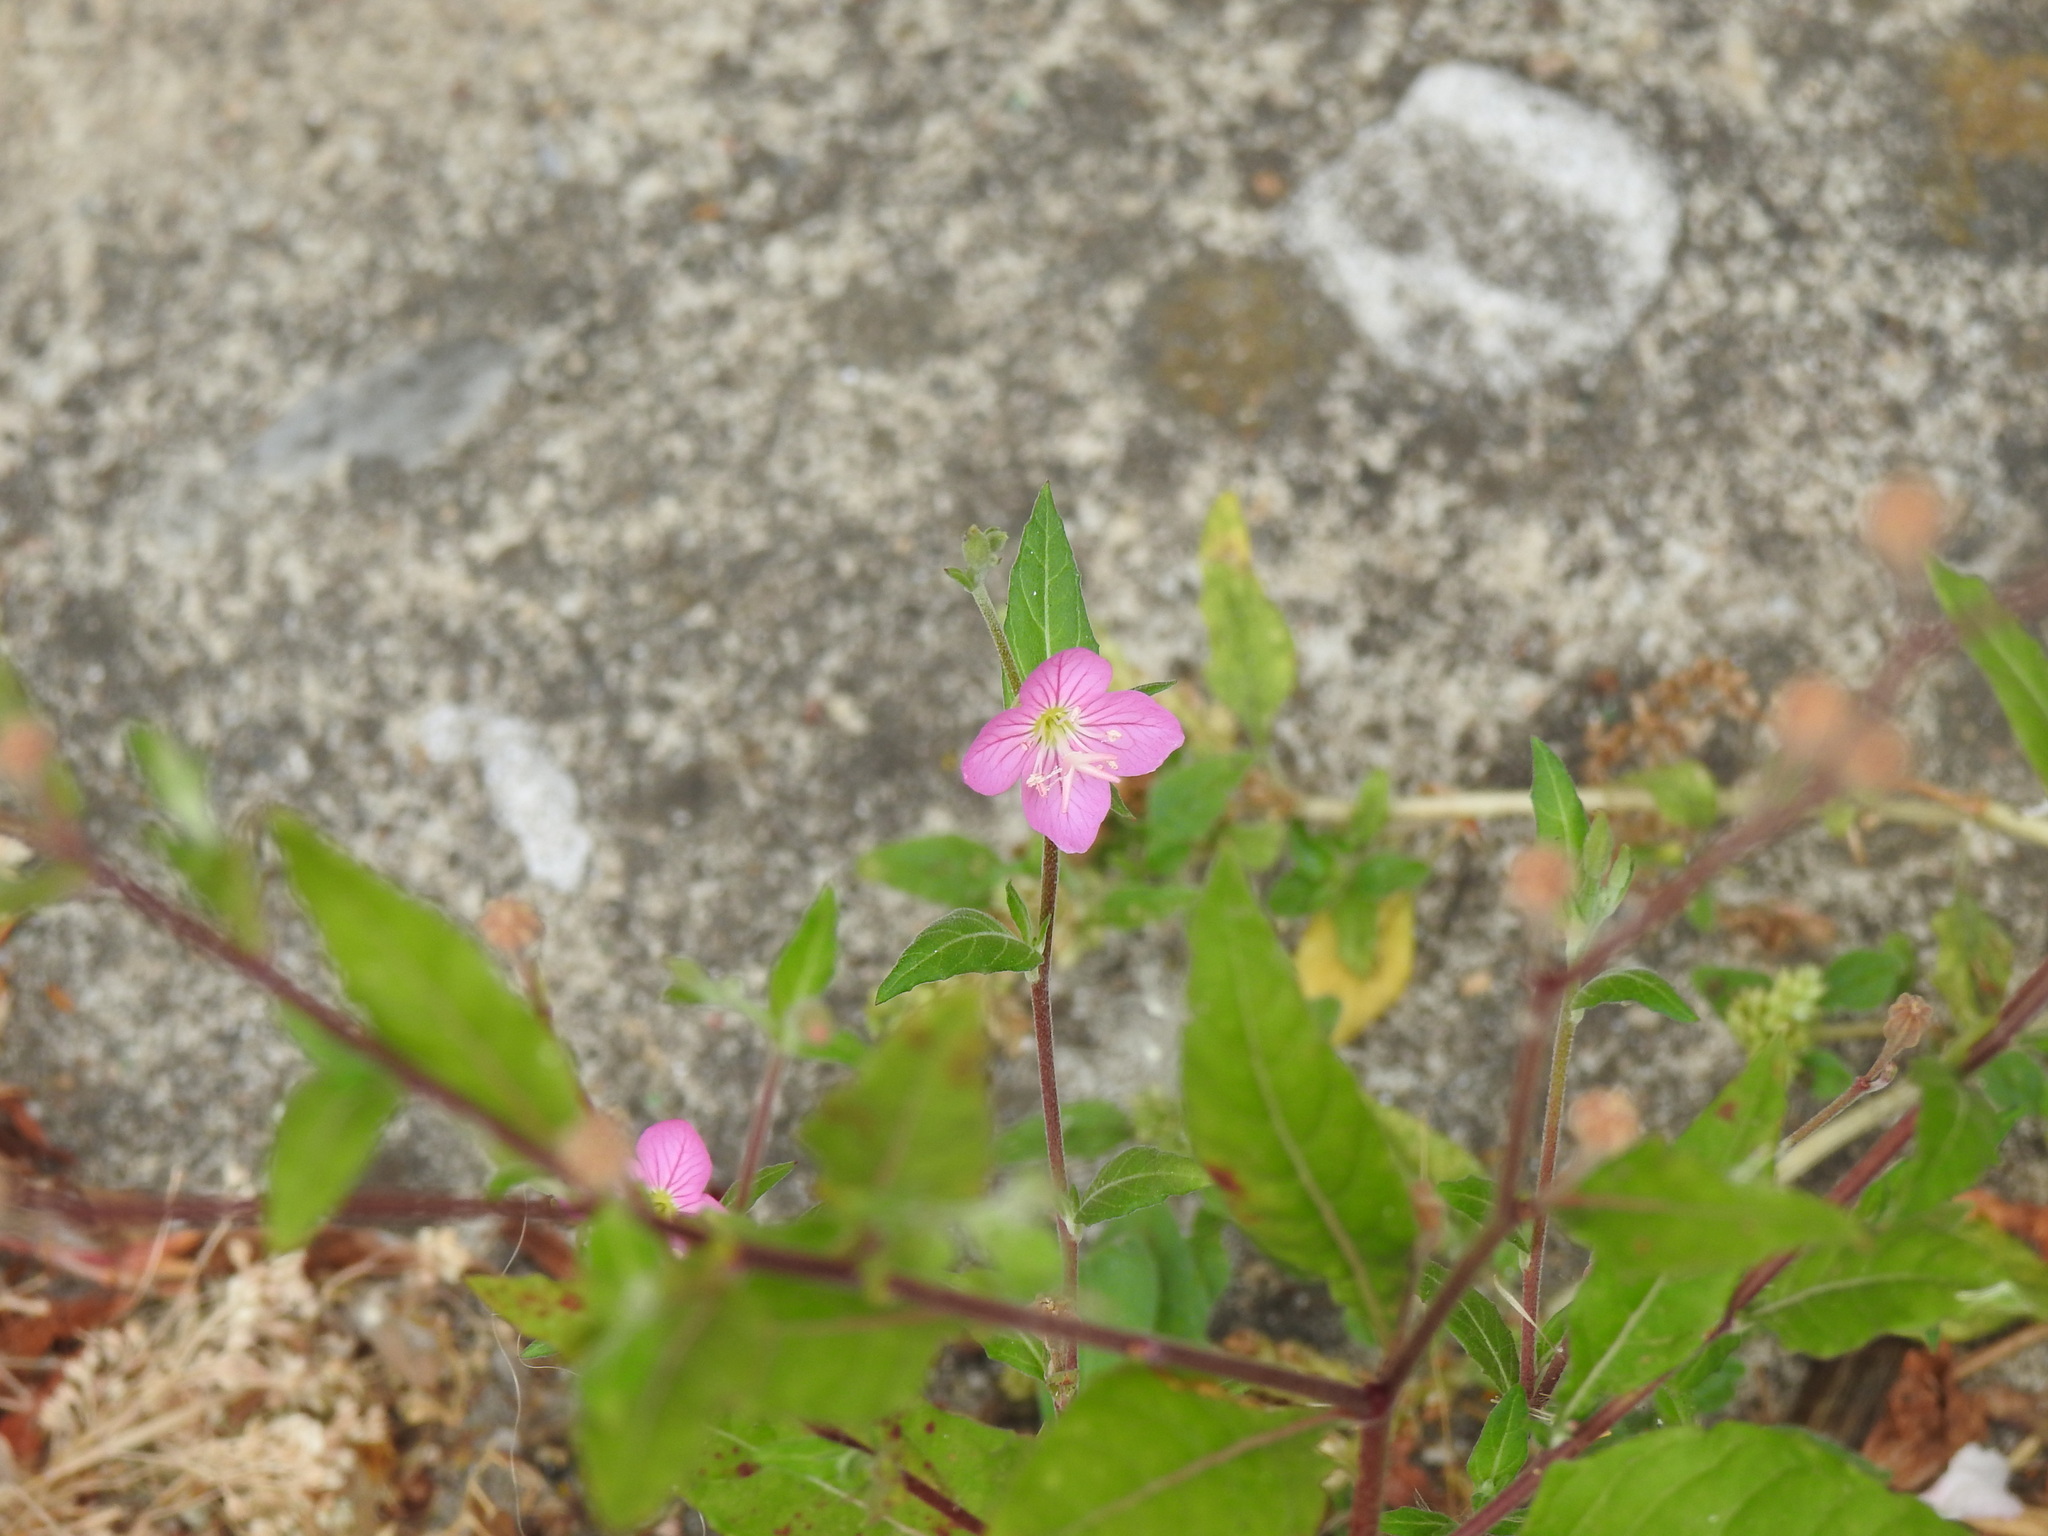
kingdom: Plantae
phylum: Tracheophyta
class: Magnoliopsida
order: Myrtales
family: Onagraceae
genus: Oenothera
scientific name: Oenothera rosea
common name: Rosy evening-primrose
